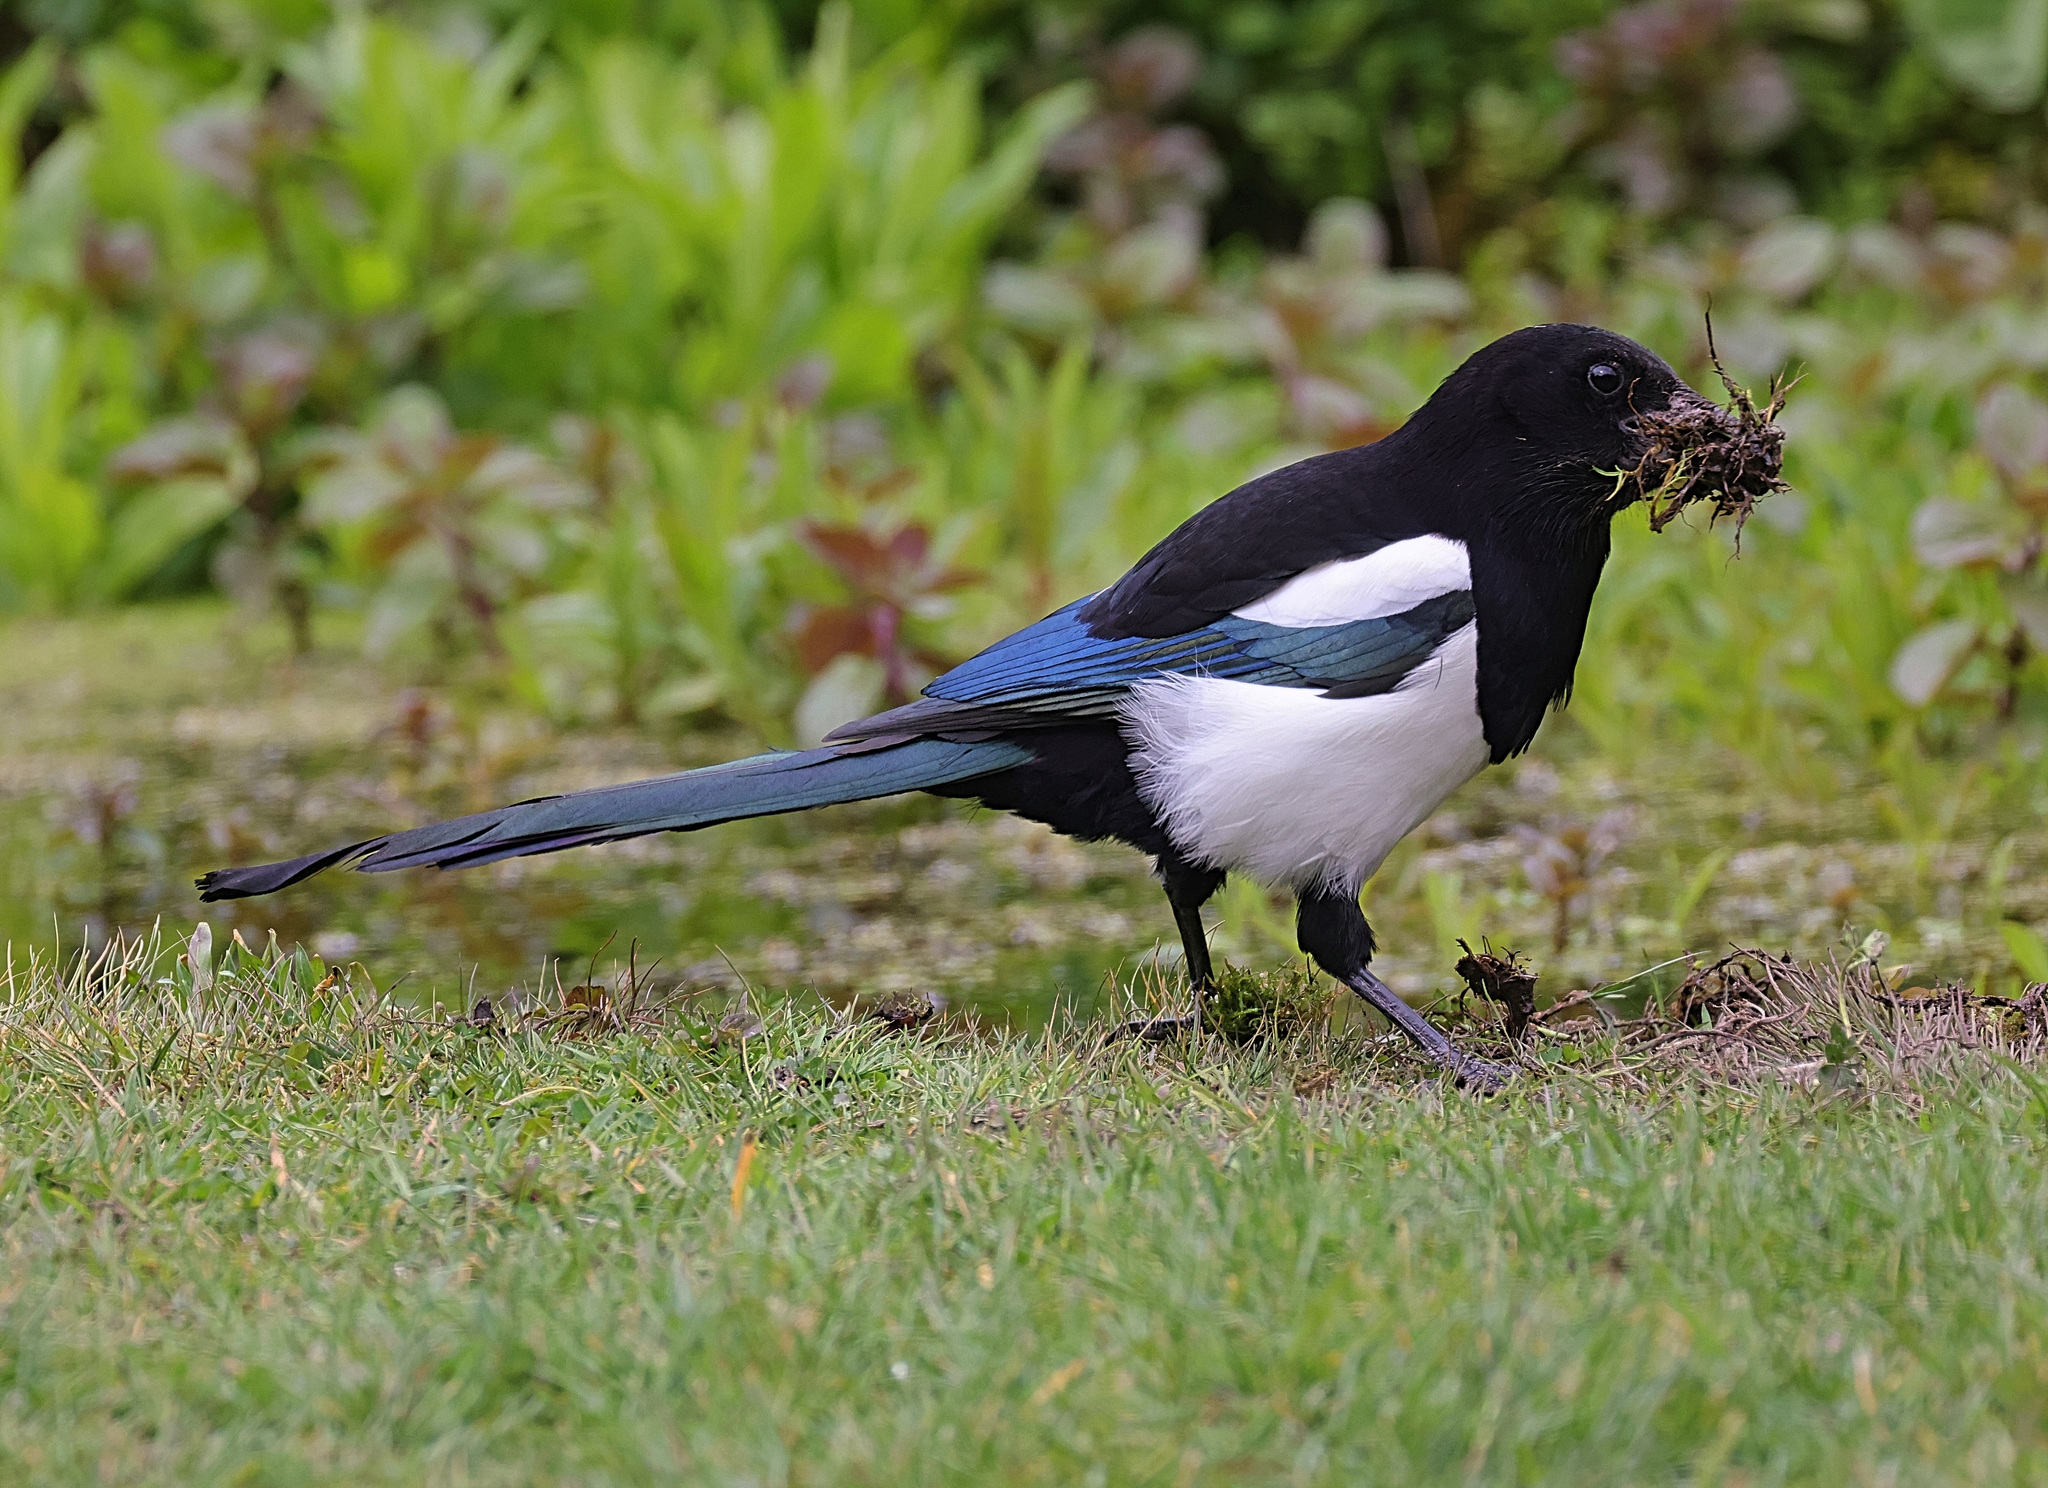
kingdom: Animalia
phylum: Chordata
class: Aves
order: Passeriformes
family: Corvidae
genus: Pica
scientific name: Pica pica
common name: Eurasian magpie
